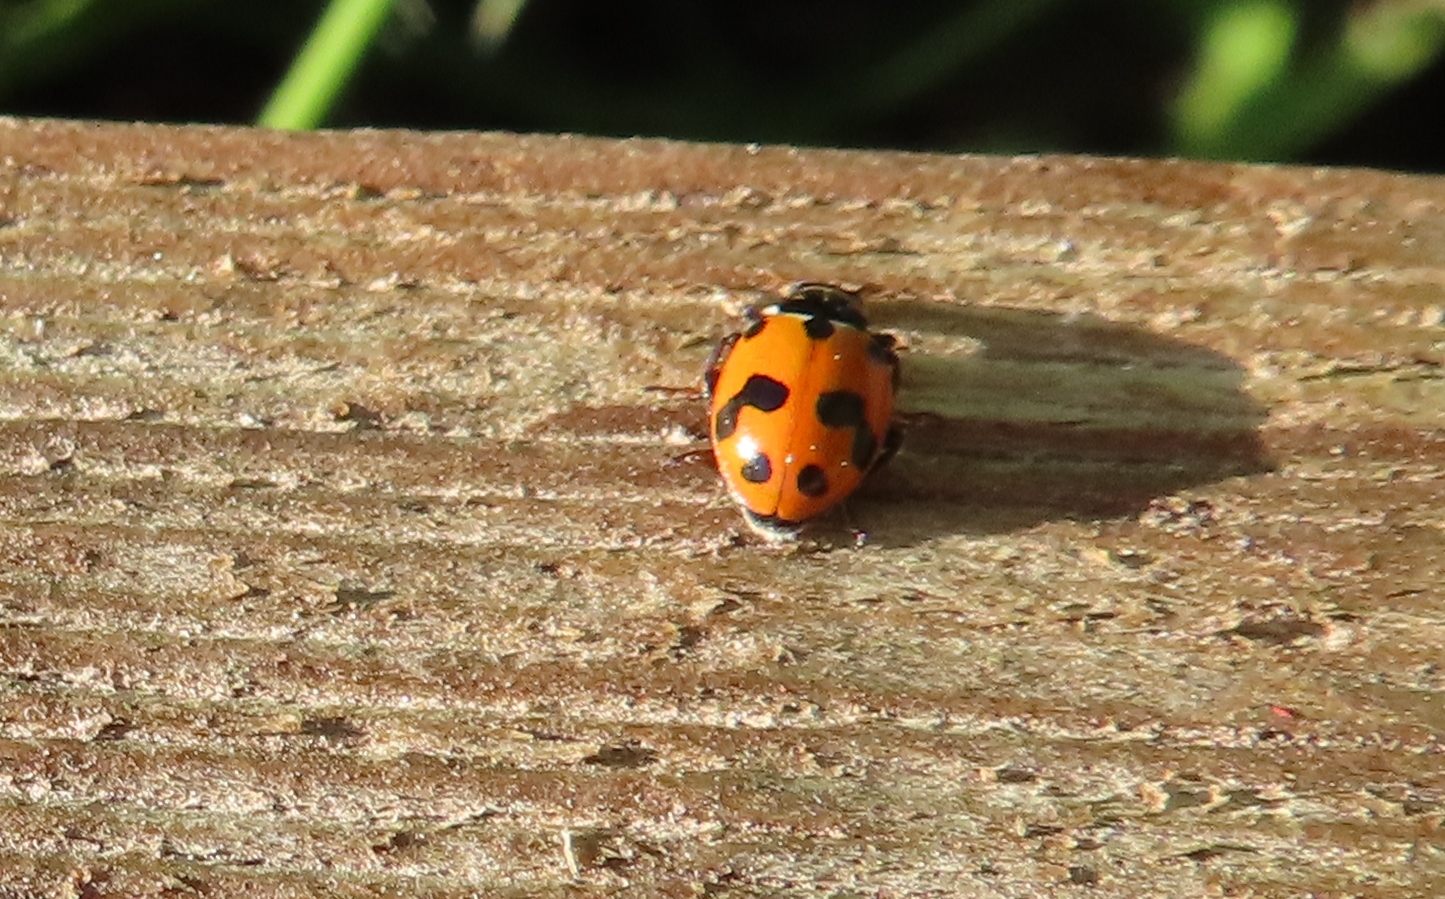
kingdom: Animalia
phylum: Arthropoda
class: Insecta
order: Coleoptera
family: Coccinellidae
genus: Hippodamia
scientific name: Hippodamia variegata
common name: Ladybird beetle
